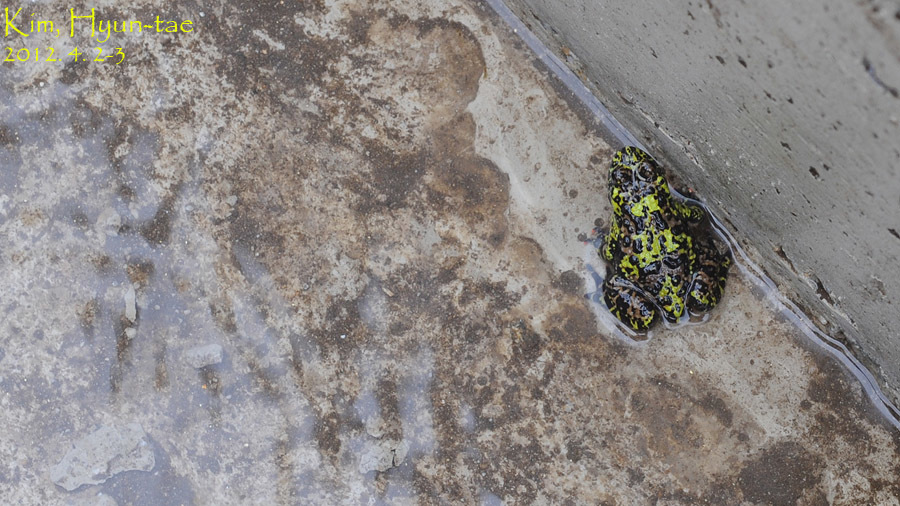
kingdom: Animalia
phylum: Chordata
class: Amphibia
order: Anura
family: Bombinatoridae
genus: Bombina
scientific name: Bombina orientalis
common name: Oriental firebelly toad
